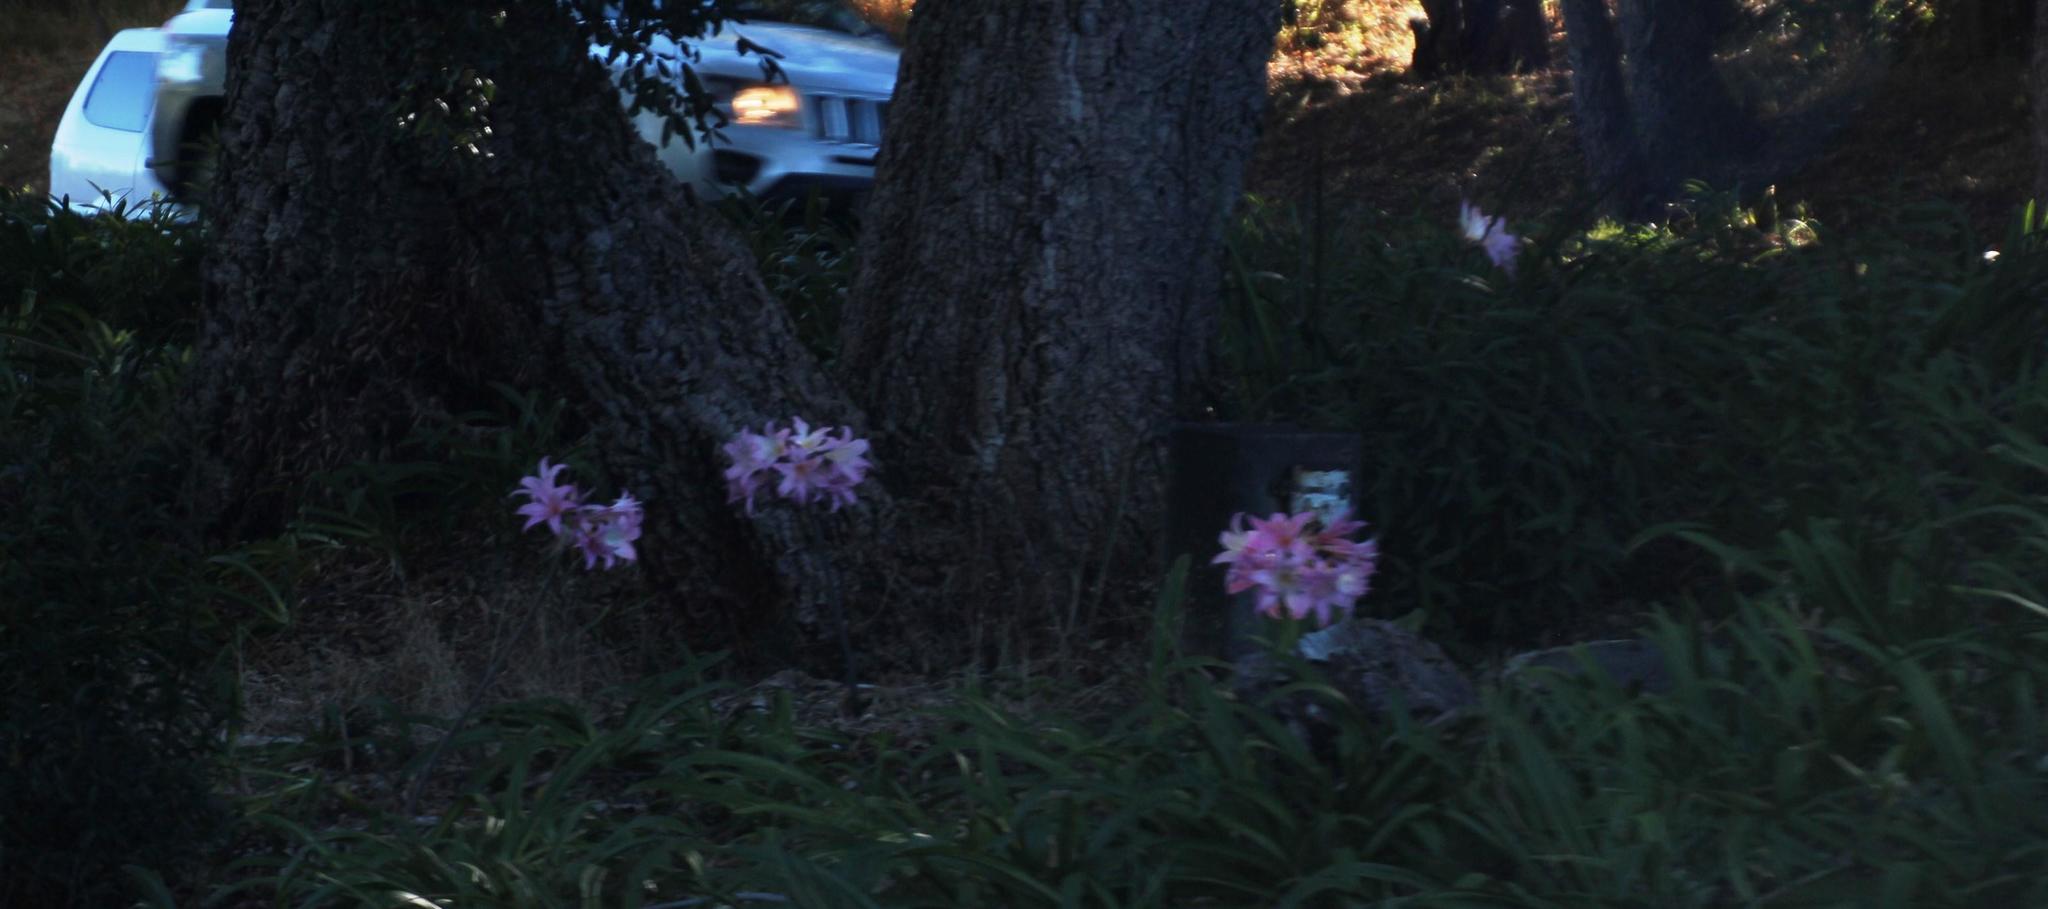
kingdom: Plantae
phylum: Tracheophyta
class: Liliopsida
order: Asparagales
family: Amaryllidaceae
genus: Amaryllis
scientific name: Amaryllis belladonna
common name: Jersey lily
